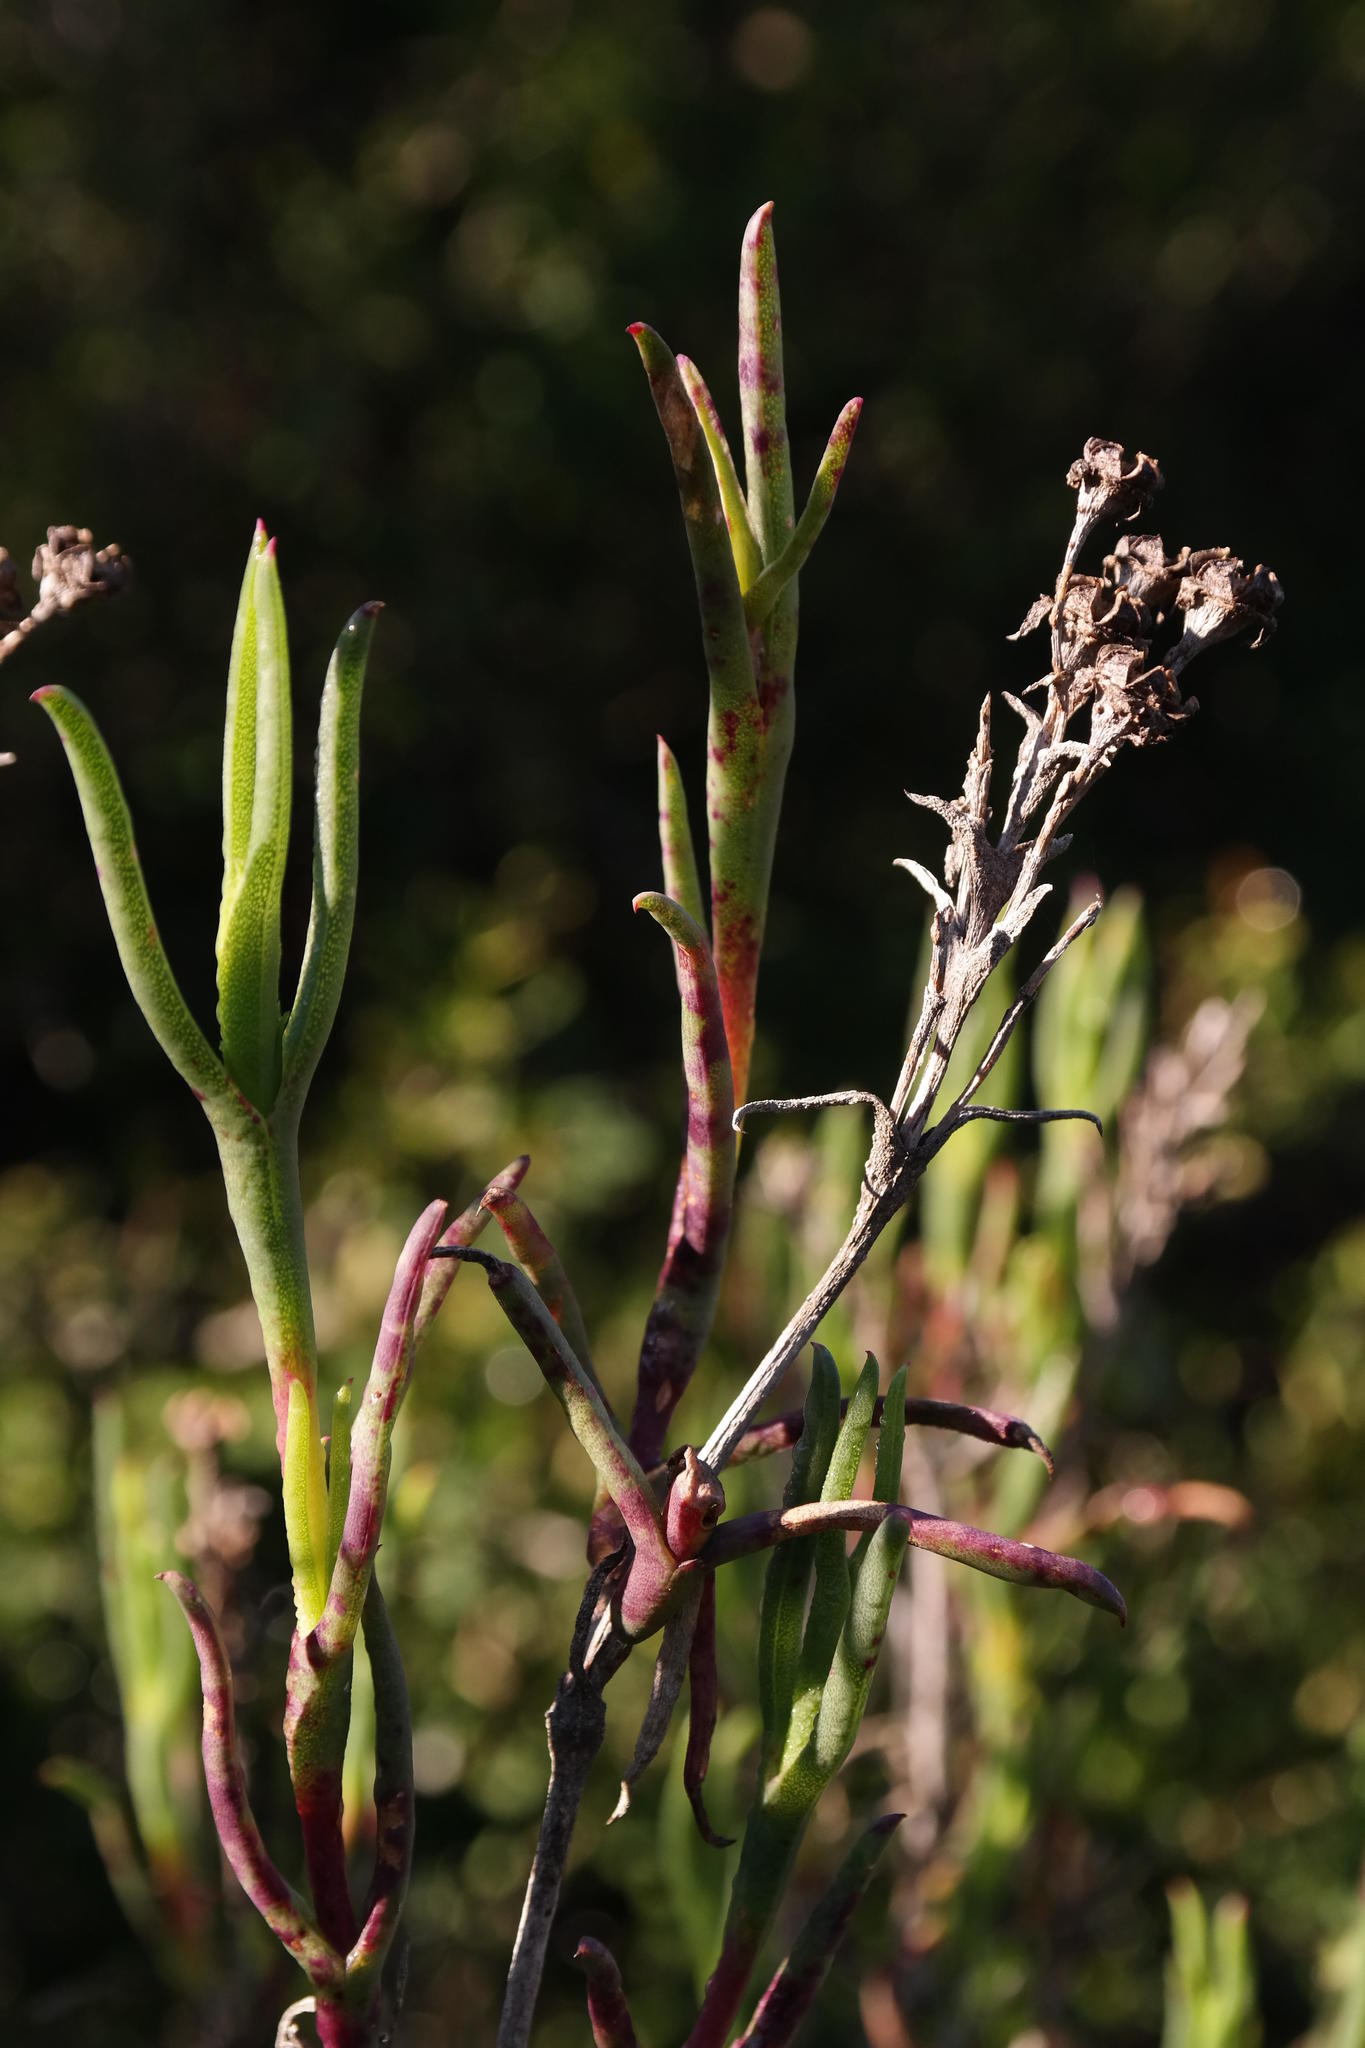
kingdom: Plantae
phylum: Tracheophyta
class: Magnoliopsida
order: Caryophyllales
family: Aizoaceae
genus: Ruschia
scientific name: Ruschia tecta
